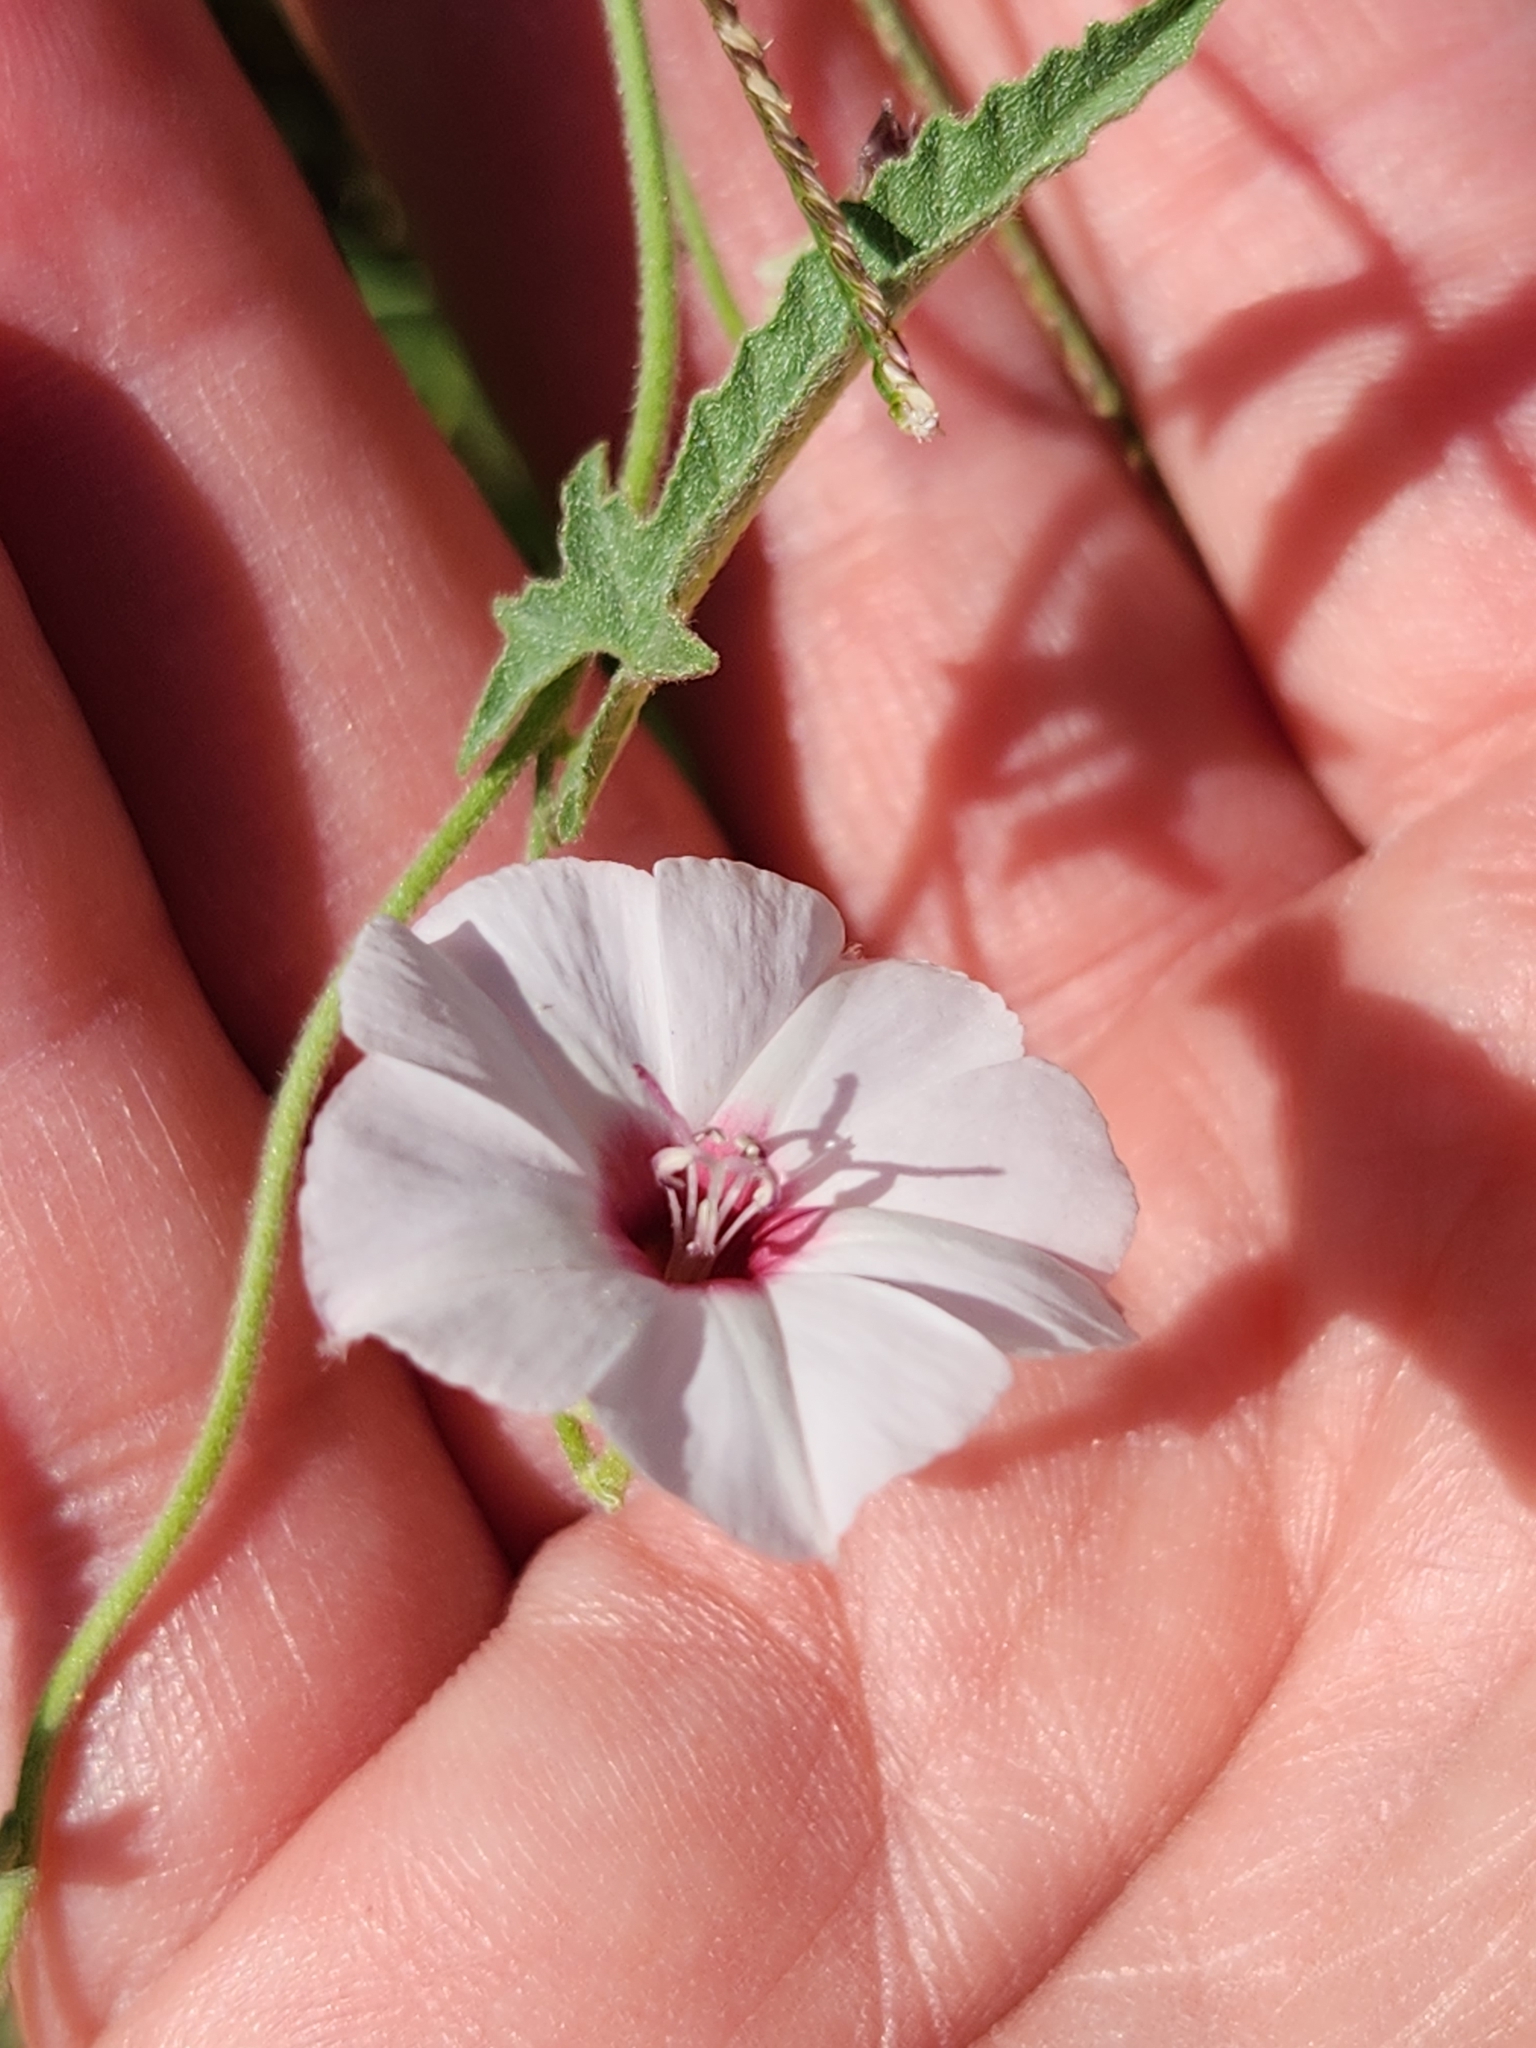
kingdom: Plantae
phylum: Tracheophyta
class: Magnoliopsida
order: Solanales
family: Convolvulaceae
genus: Convolvulus
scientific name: Convolvulus equitans
